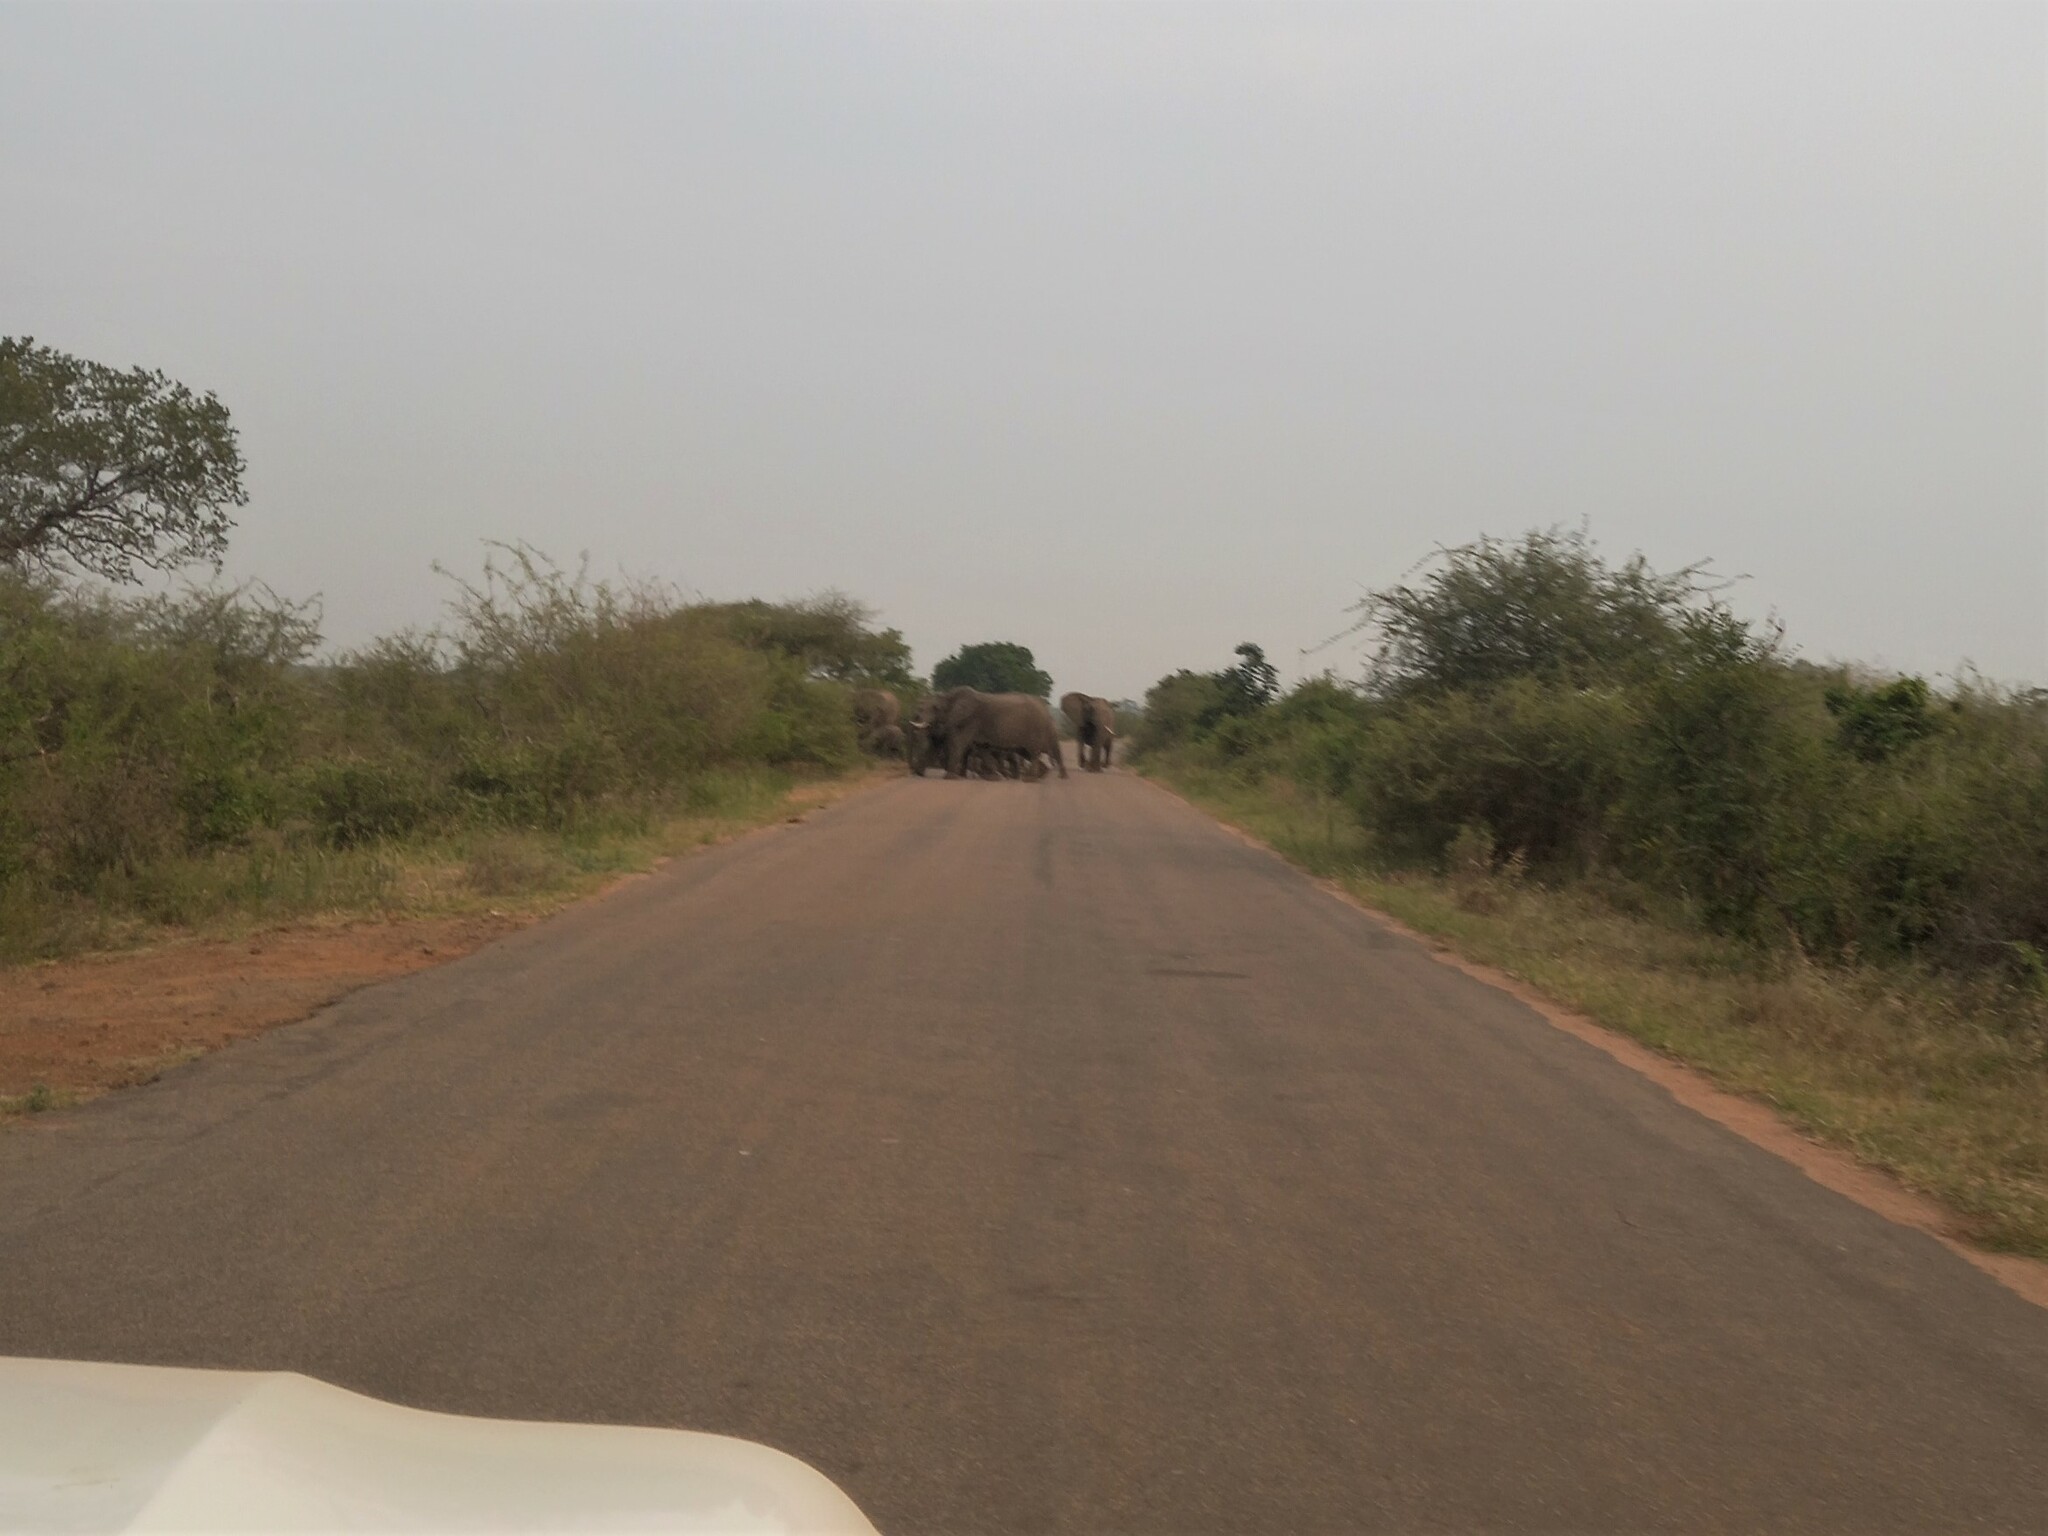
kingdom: Animalia
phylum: Chordata
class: Mammalia
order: Proboscidea
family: Elephantidae
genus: Loxodonta
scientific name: Loxodonta africana
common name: African elephant
